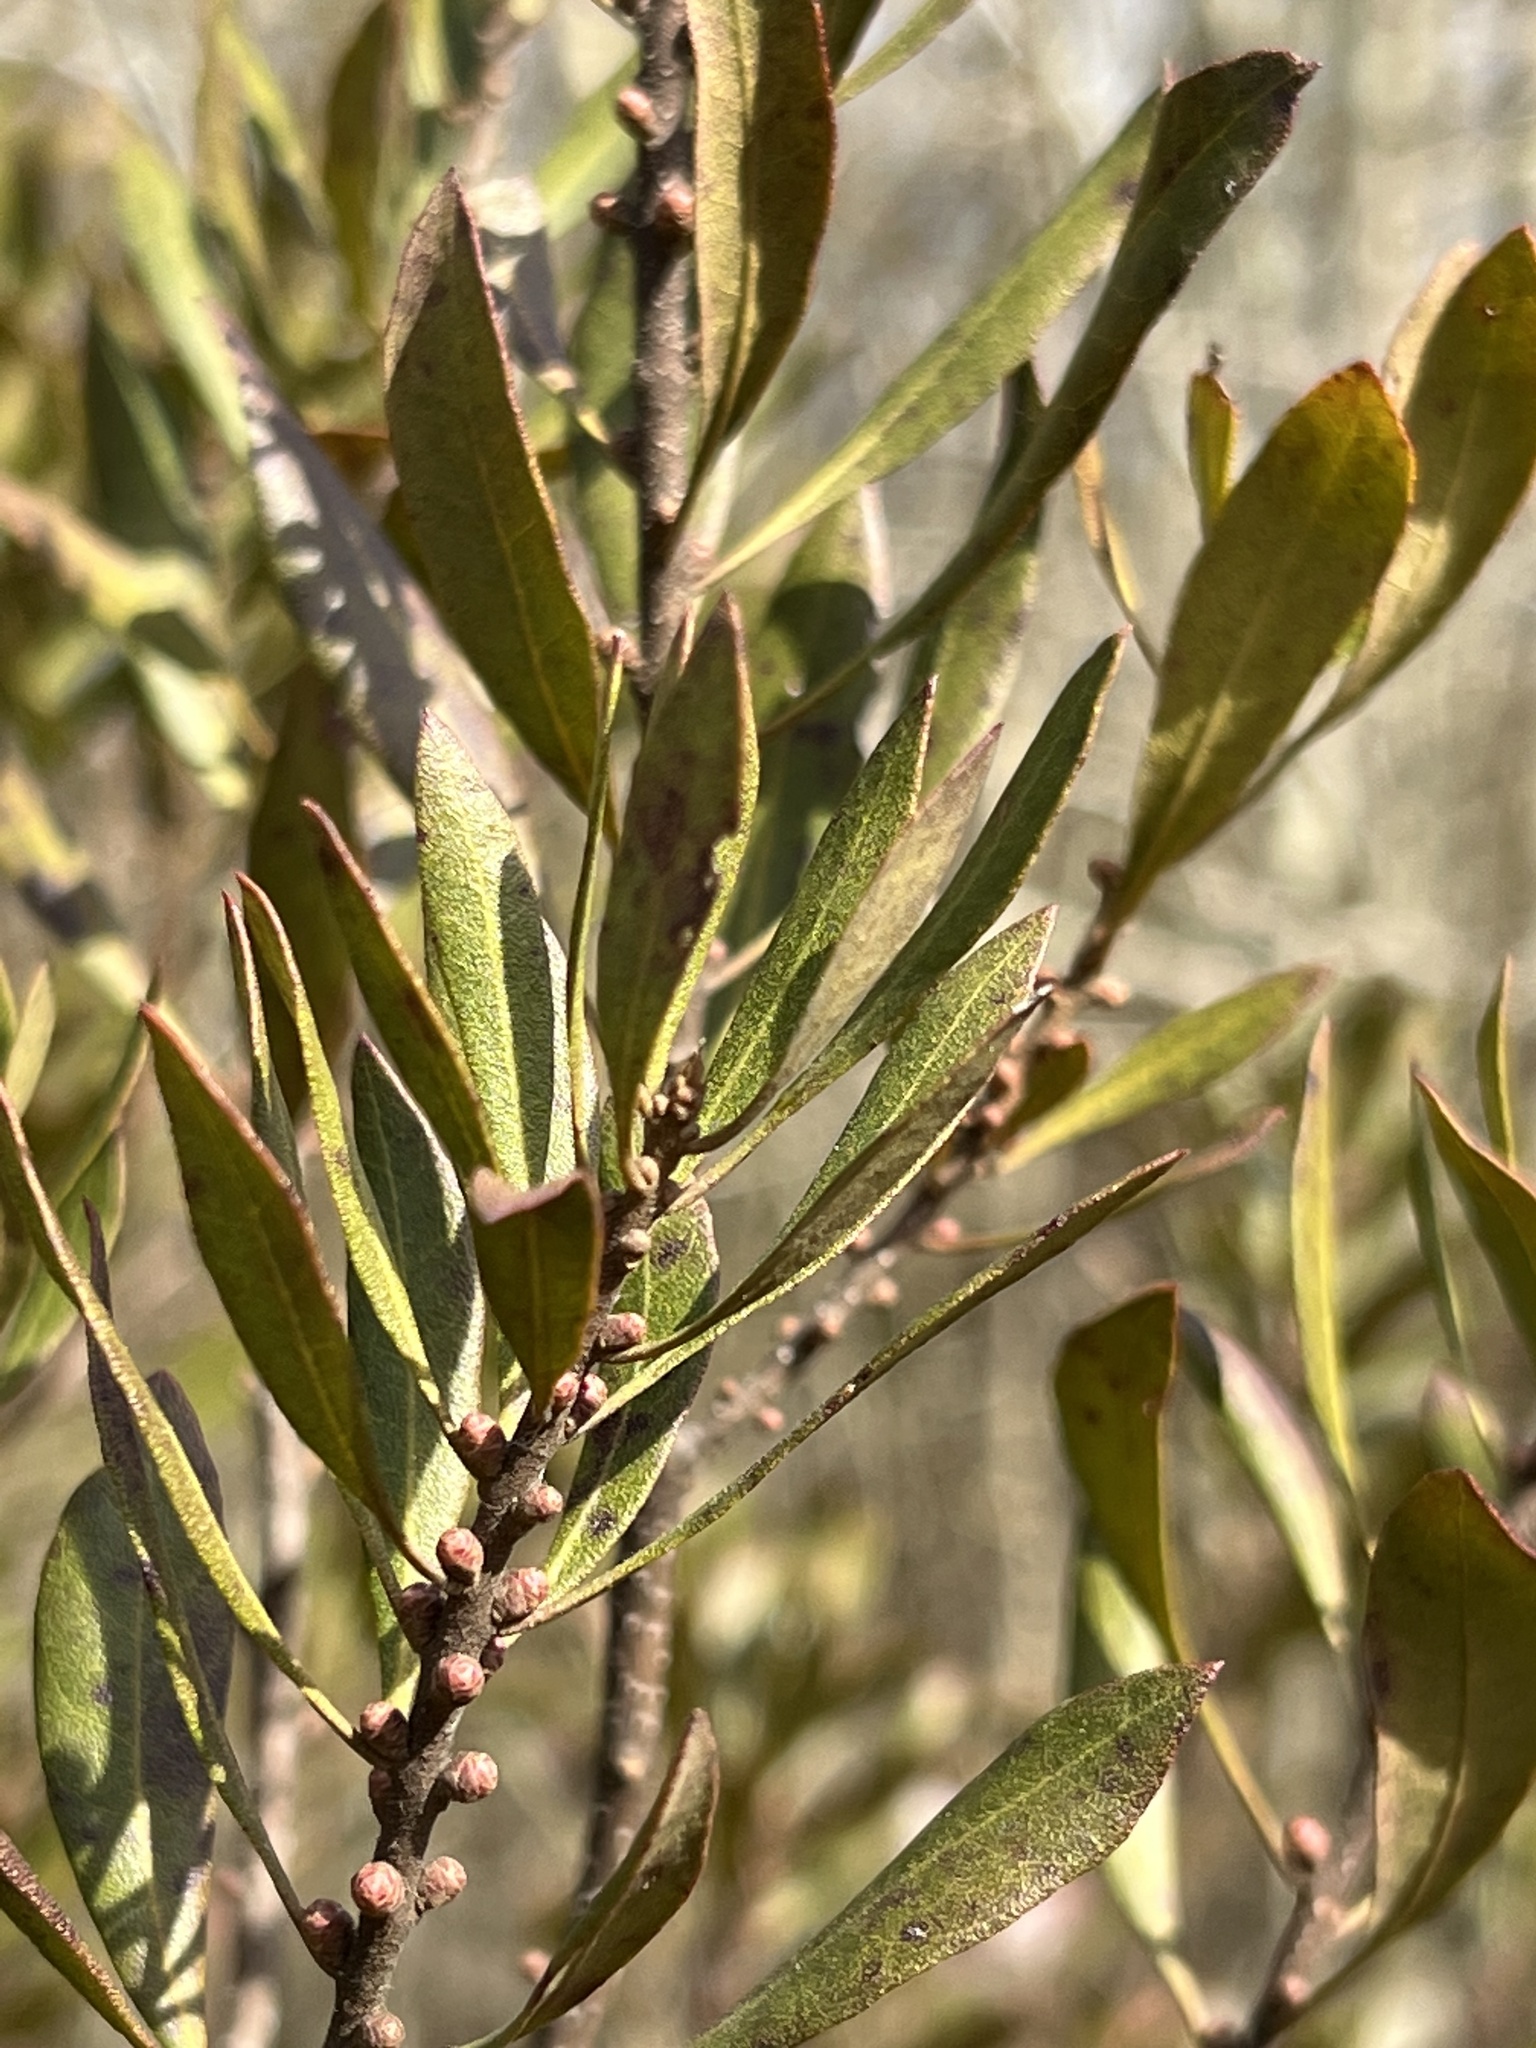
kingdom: Plantae
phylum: Tracheophyta
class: Magnoliopsida
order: Fagales
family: Myricaceae
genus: Morella
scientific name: Morella cerifera
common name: Wax myrtle
